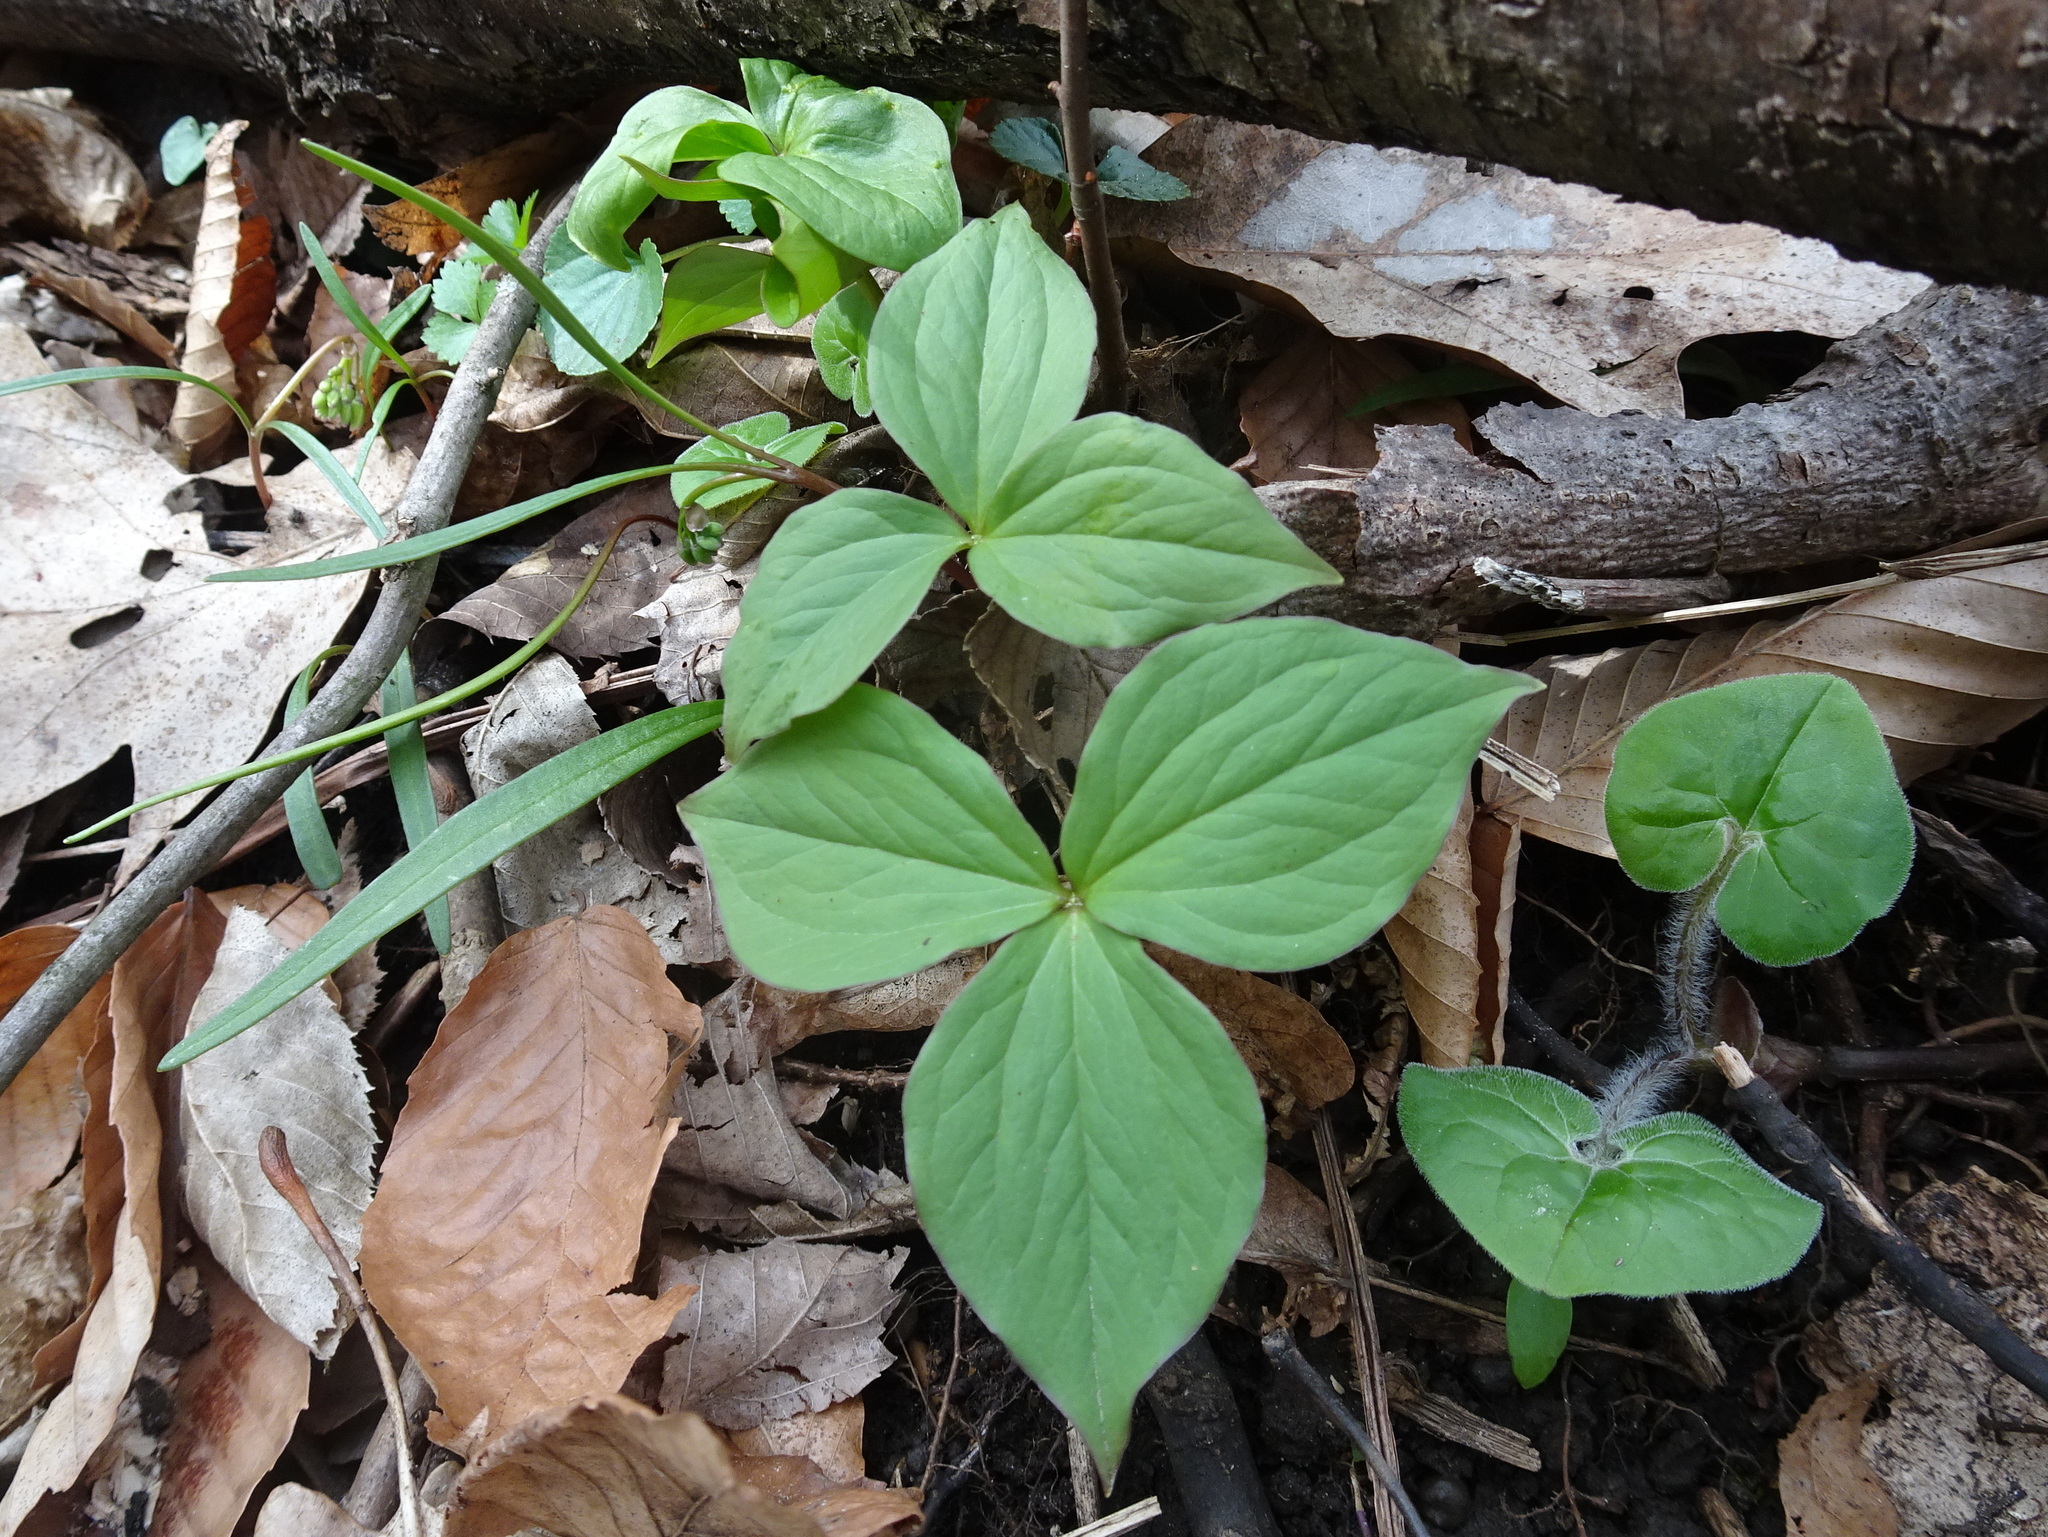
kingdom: Plantae
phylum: Tracheophyta
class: Liliopsida
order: Liliales
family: Melanthiaceae
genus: Trillium
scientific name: Trillium grandiflorum
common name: Great white trillium
